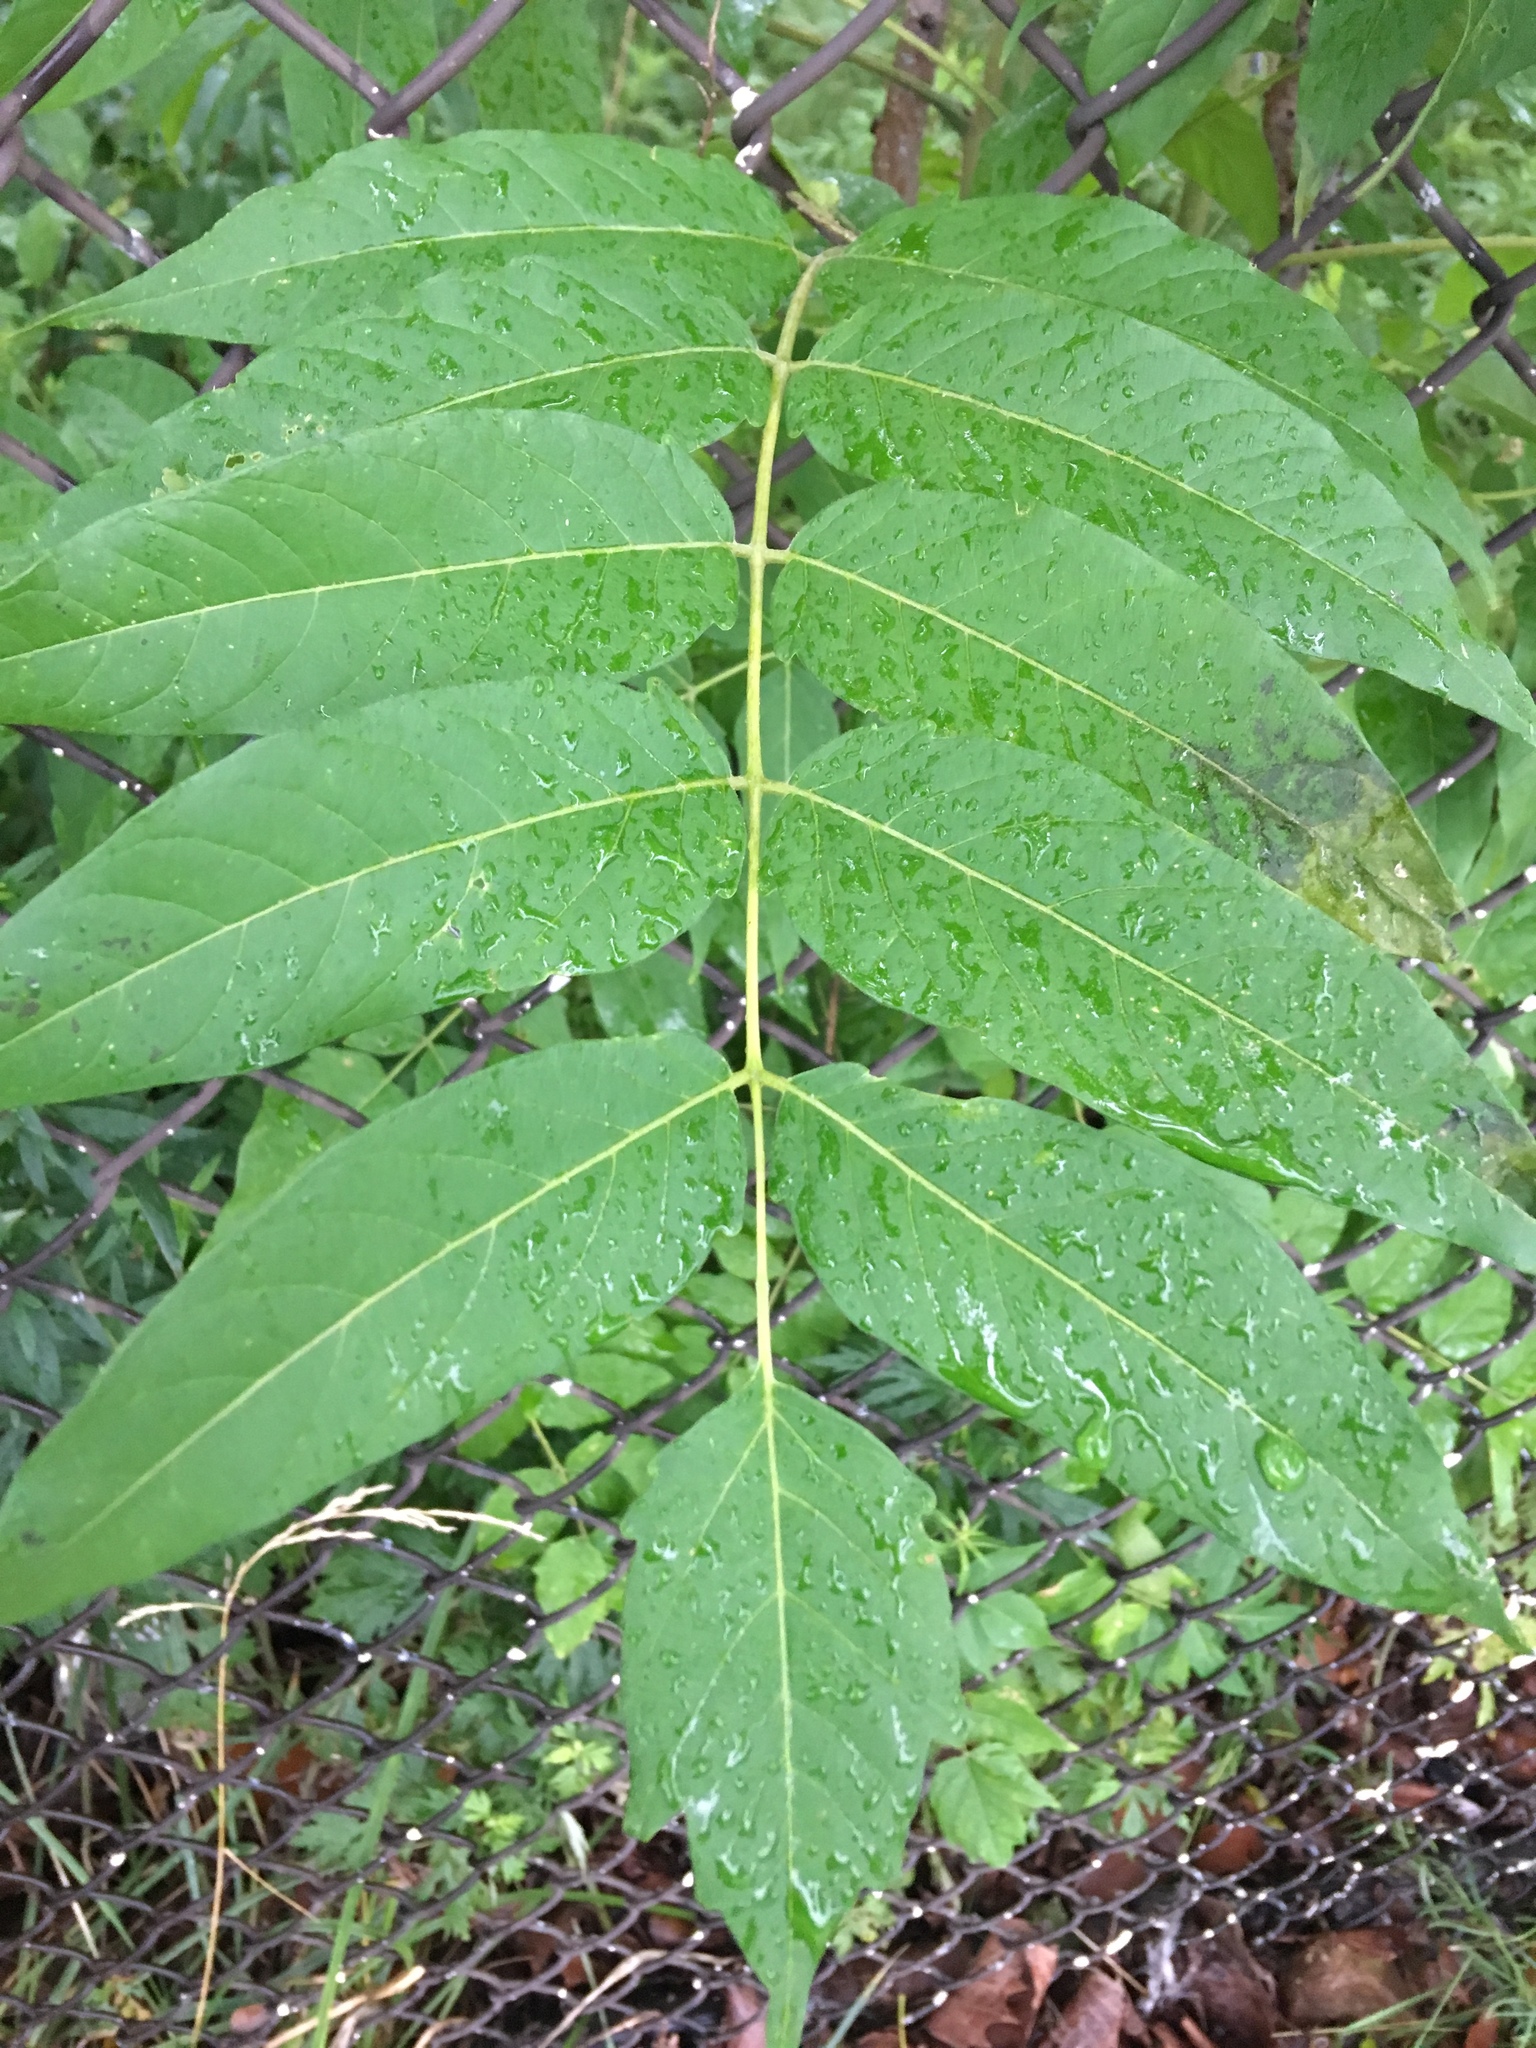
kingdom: Plantae
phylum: Tracheophyta
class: Magnoliopsida
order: Sapindales
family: Simaroubaceae
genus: Ailanthus
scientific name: Ailanthus altissima
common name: Tree-of-heaven
